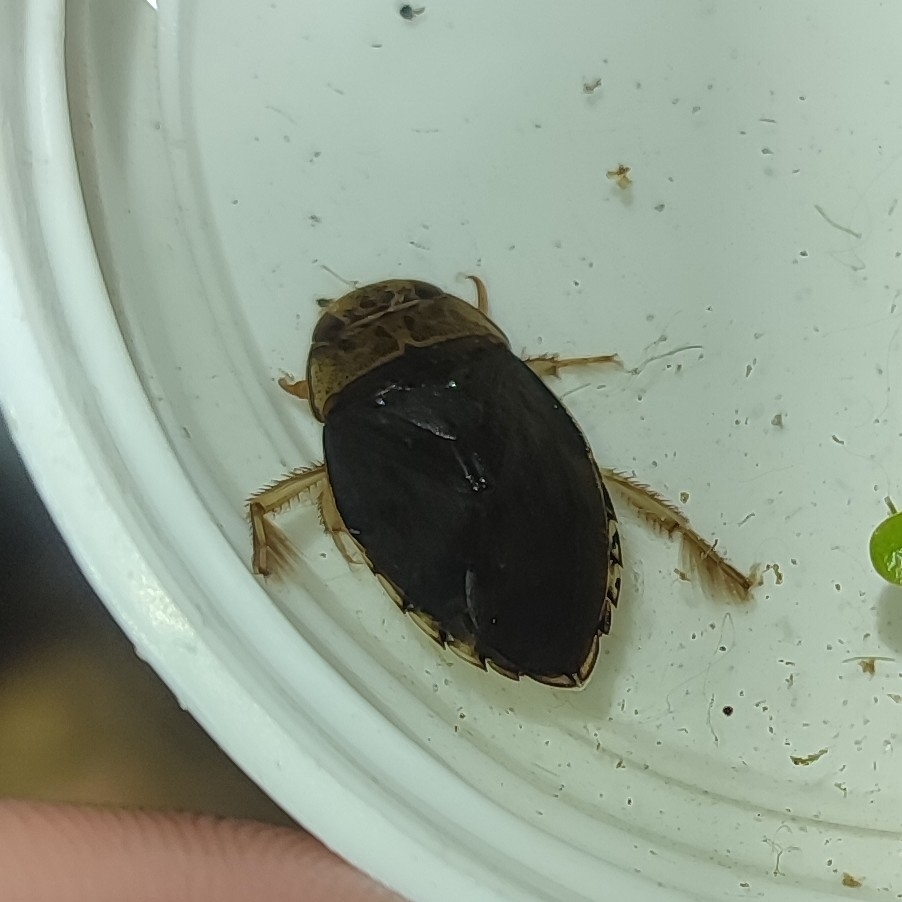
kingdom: Animalia
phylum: Arthropoda
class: Insecta
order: Hemiptera
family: Naucoridae
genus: Ilyocoris
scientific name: Ilyocoris cimicoides
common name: Saucer bugs
